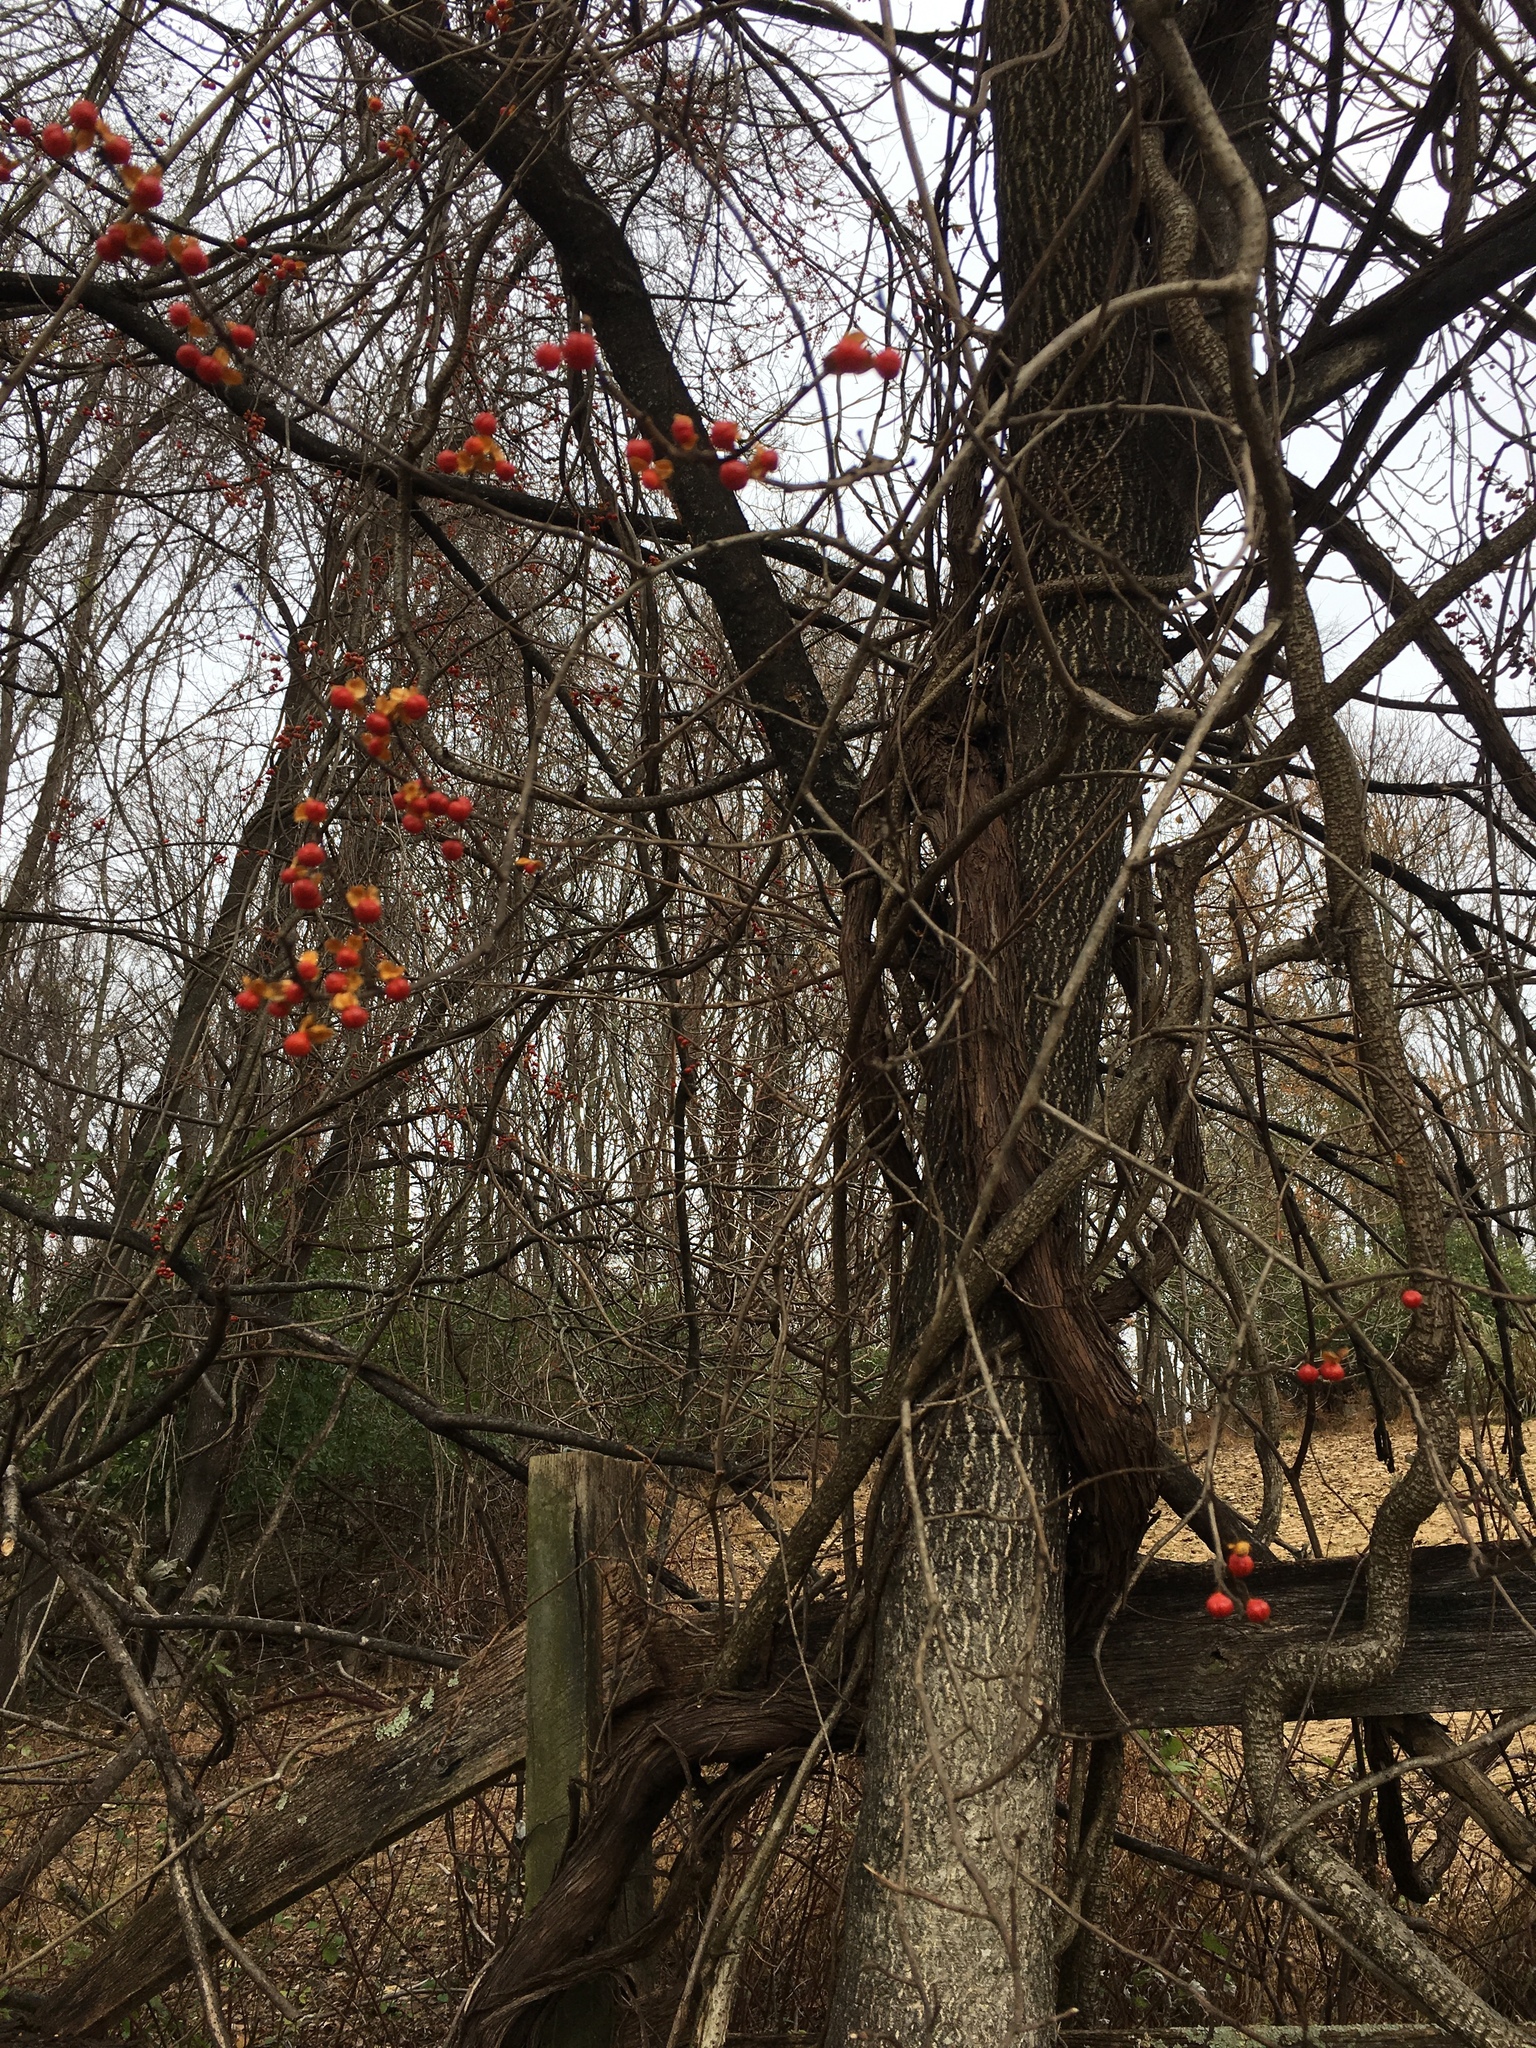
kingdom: Plantae
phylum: Tracheophyta
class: Magnoliopsida
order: Celastrales
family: Celastraceae
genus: Celastrus
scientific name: Celastrus orbiculatus
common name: Oriental bittersweet
